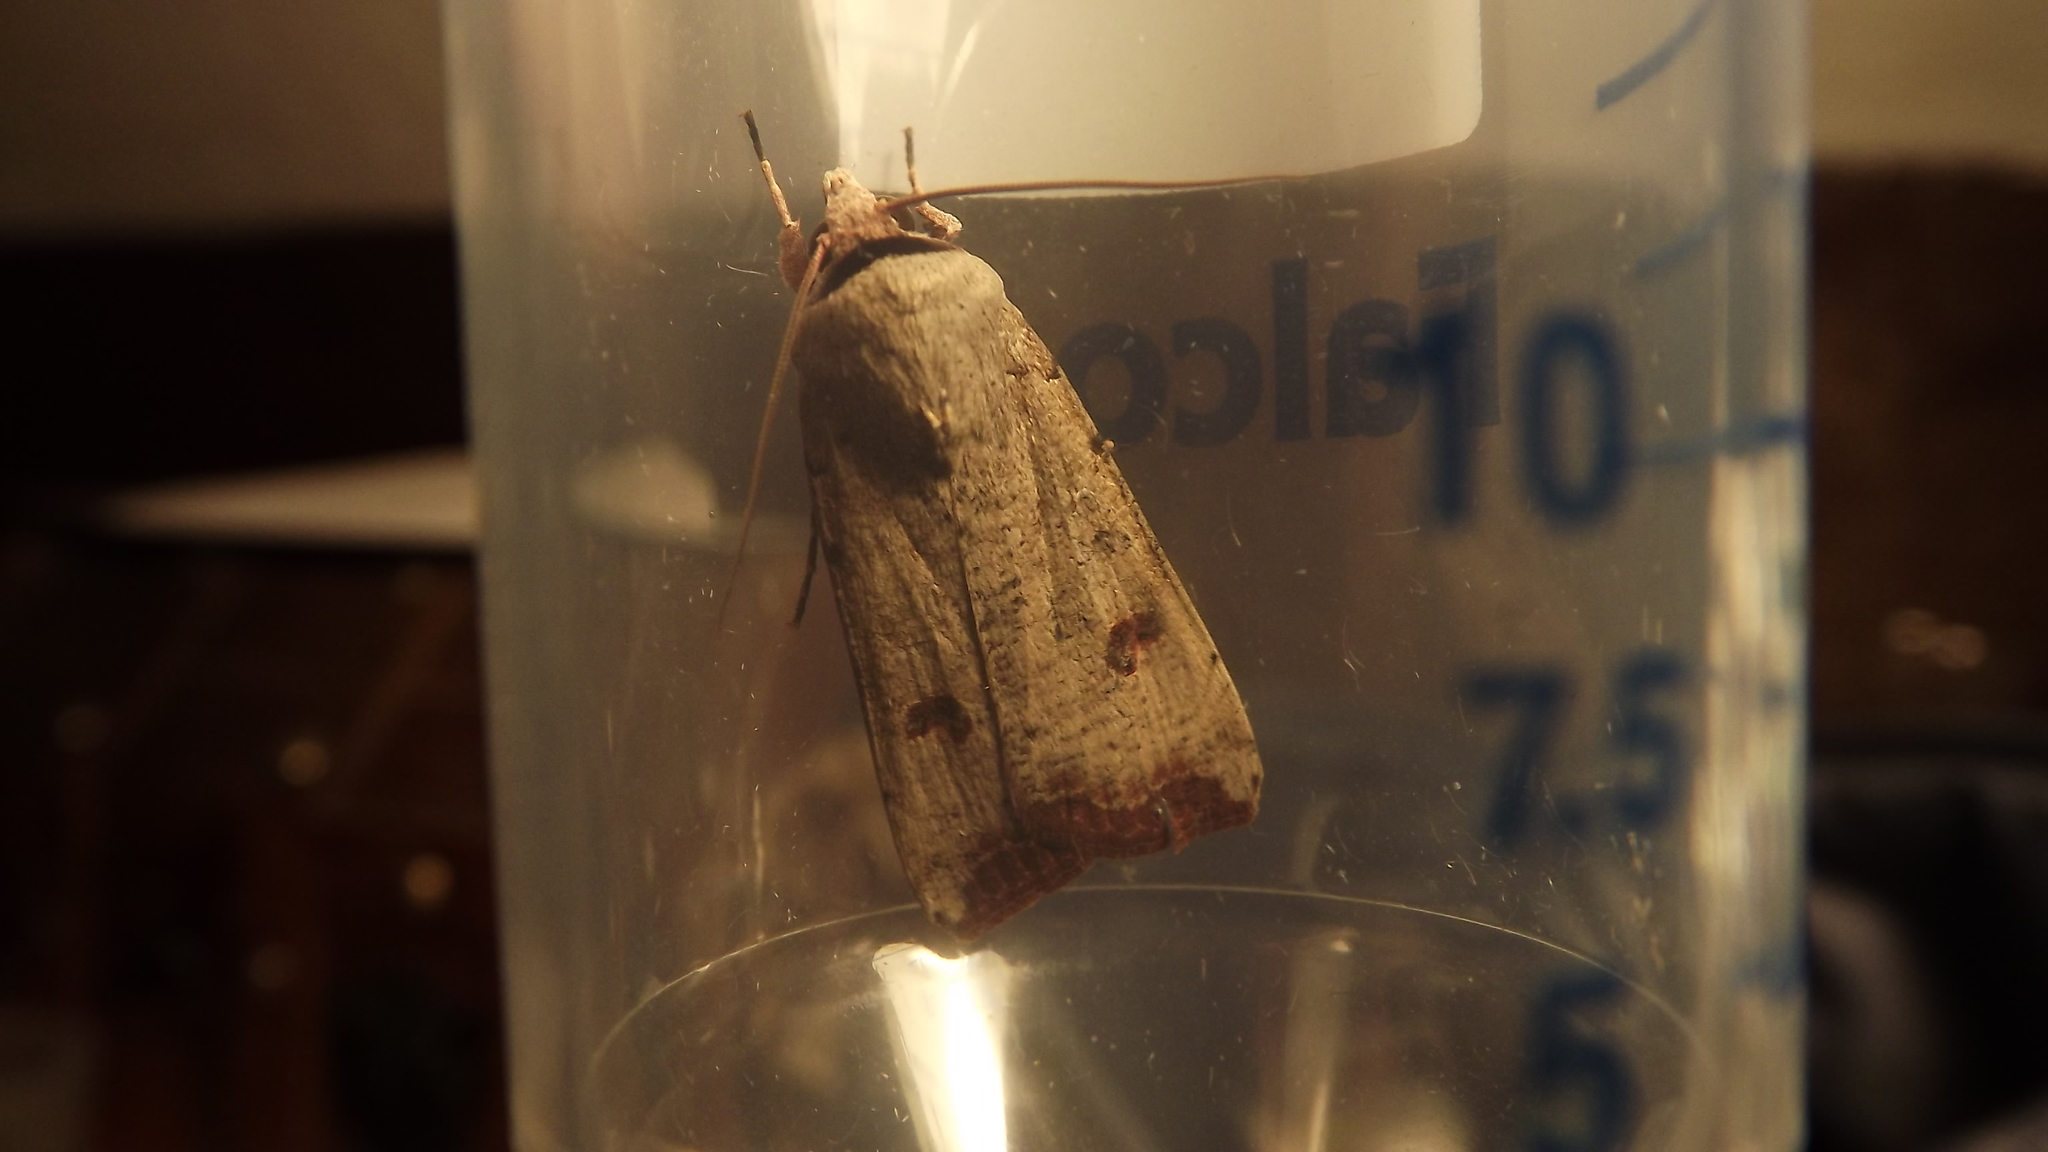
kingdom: Animalia
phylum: Arthropoda
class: Insecta
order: Lepidoptera
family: Noctuidae
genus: Anicla
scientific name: Anicla infecta
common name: Green cutworm
